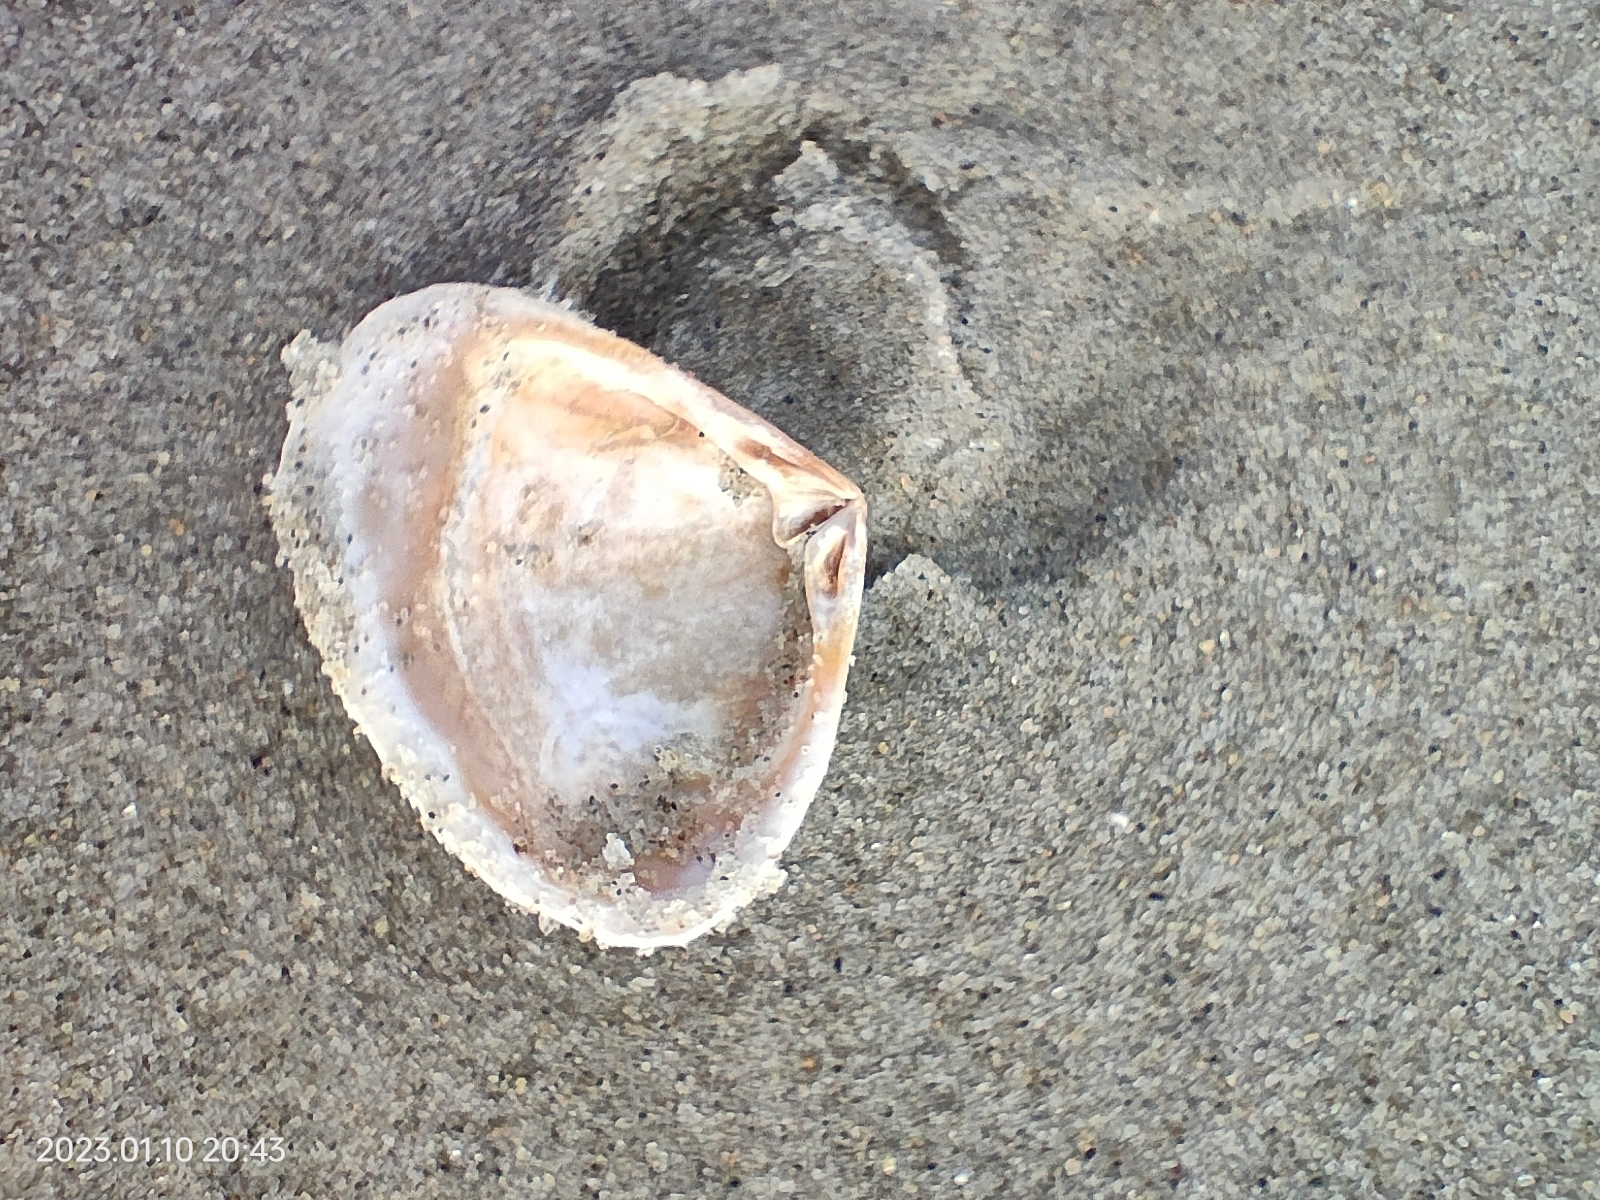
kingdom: Animalia
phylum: Mollusca
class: Bivalvia
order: Venerida
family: Mesodesmatidae
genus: Paphies
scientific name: Paphies donacina
